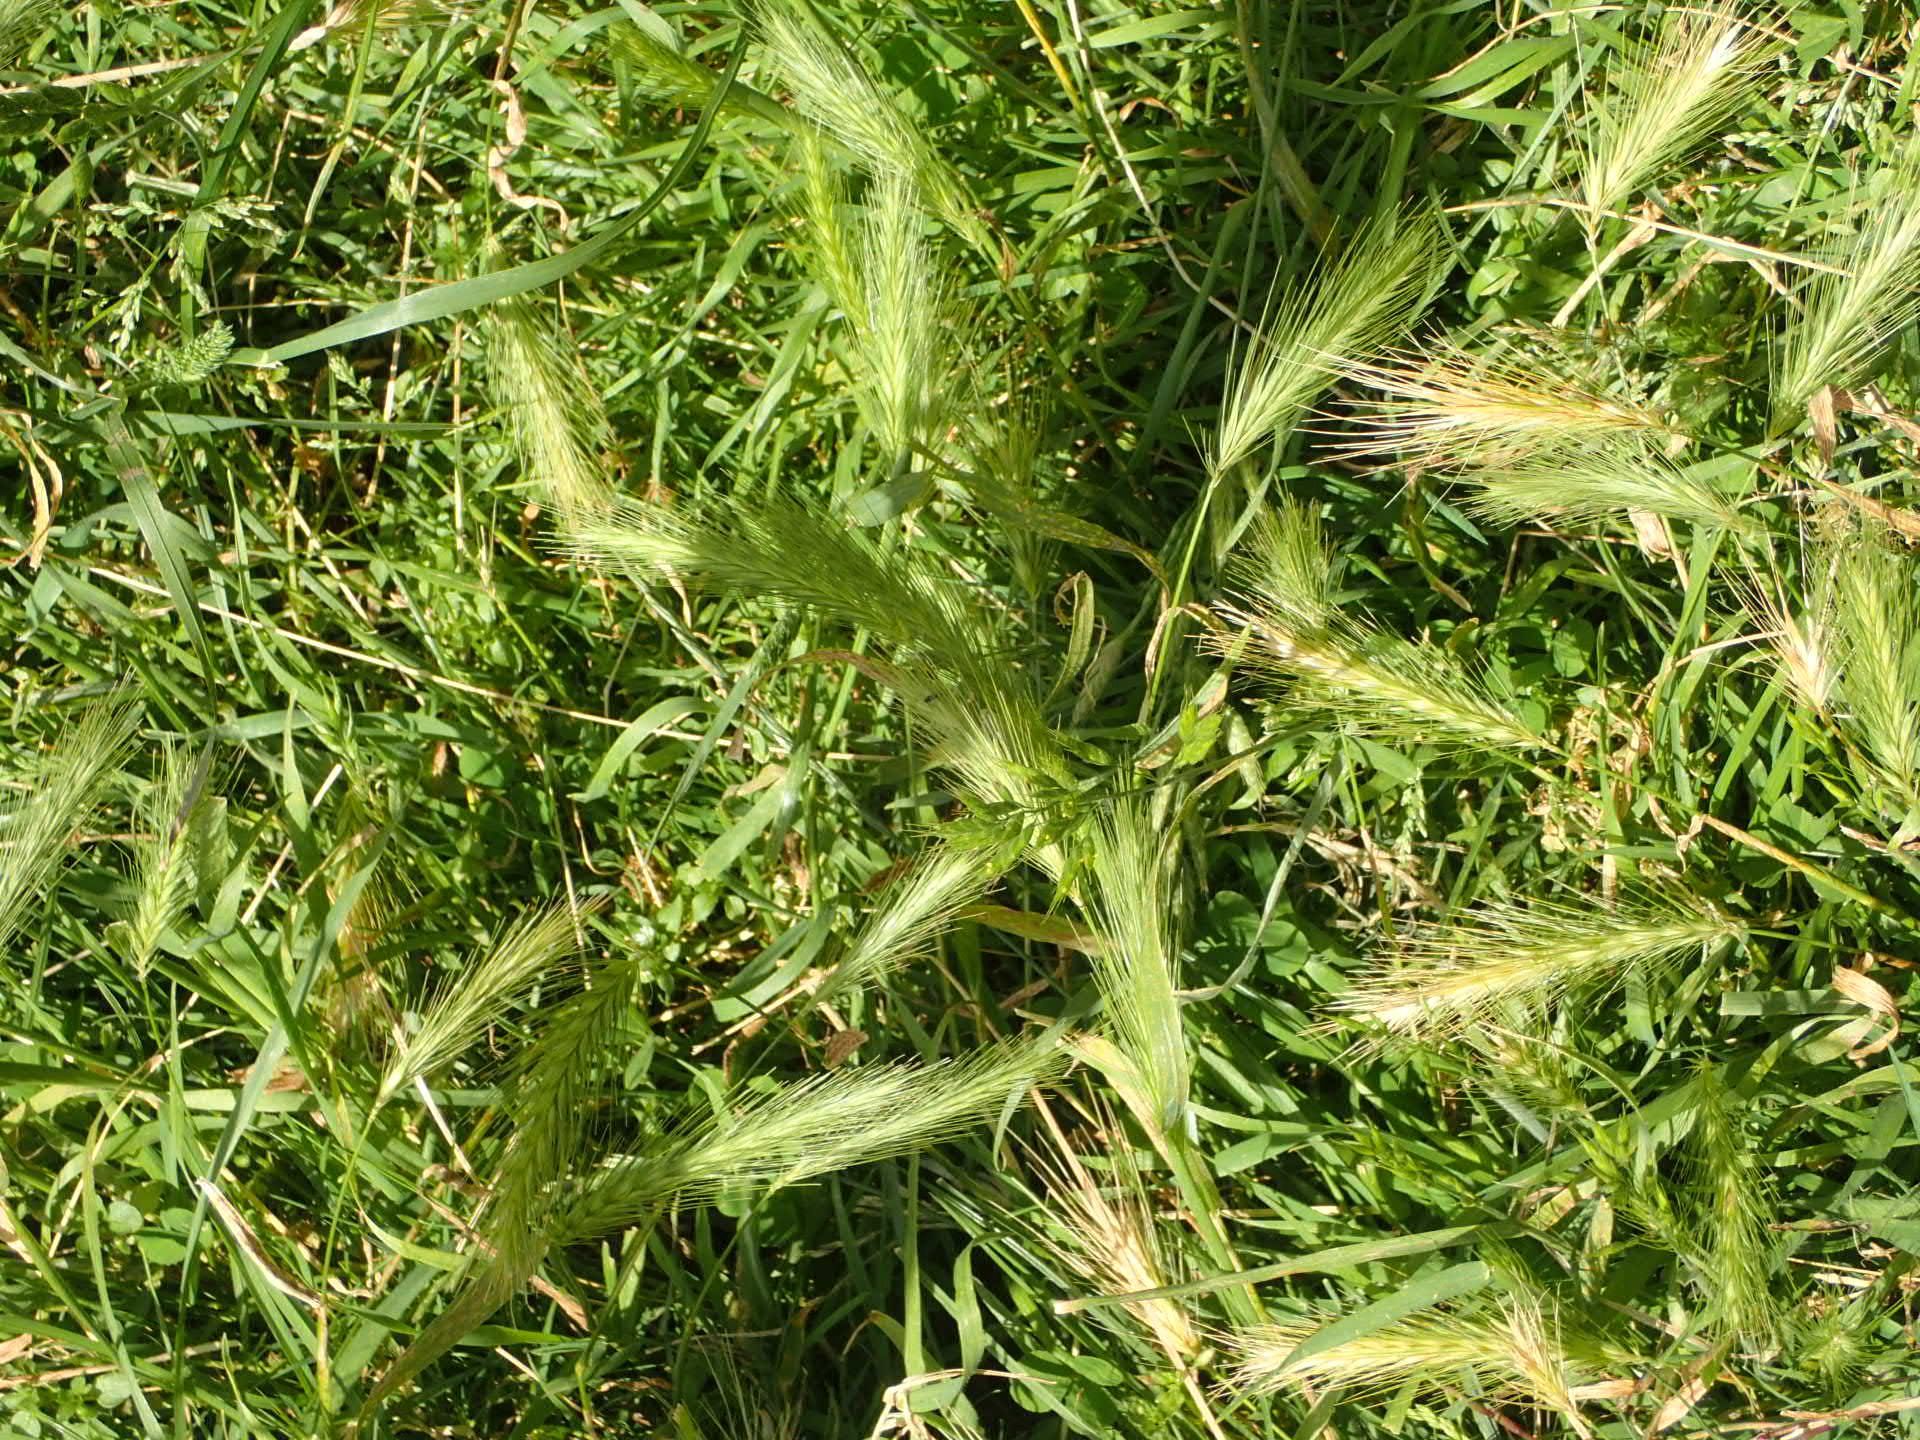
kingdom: Plantae
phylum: Tracheophyta
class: Liliopsida
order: Poales
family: Poaceae
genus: Hordeum
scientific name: Hordeum murinum
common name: Wall barley
